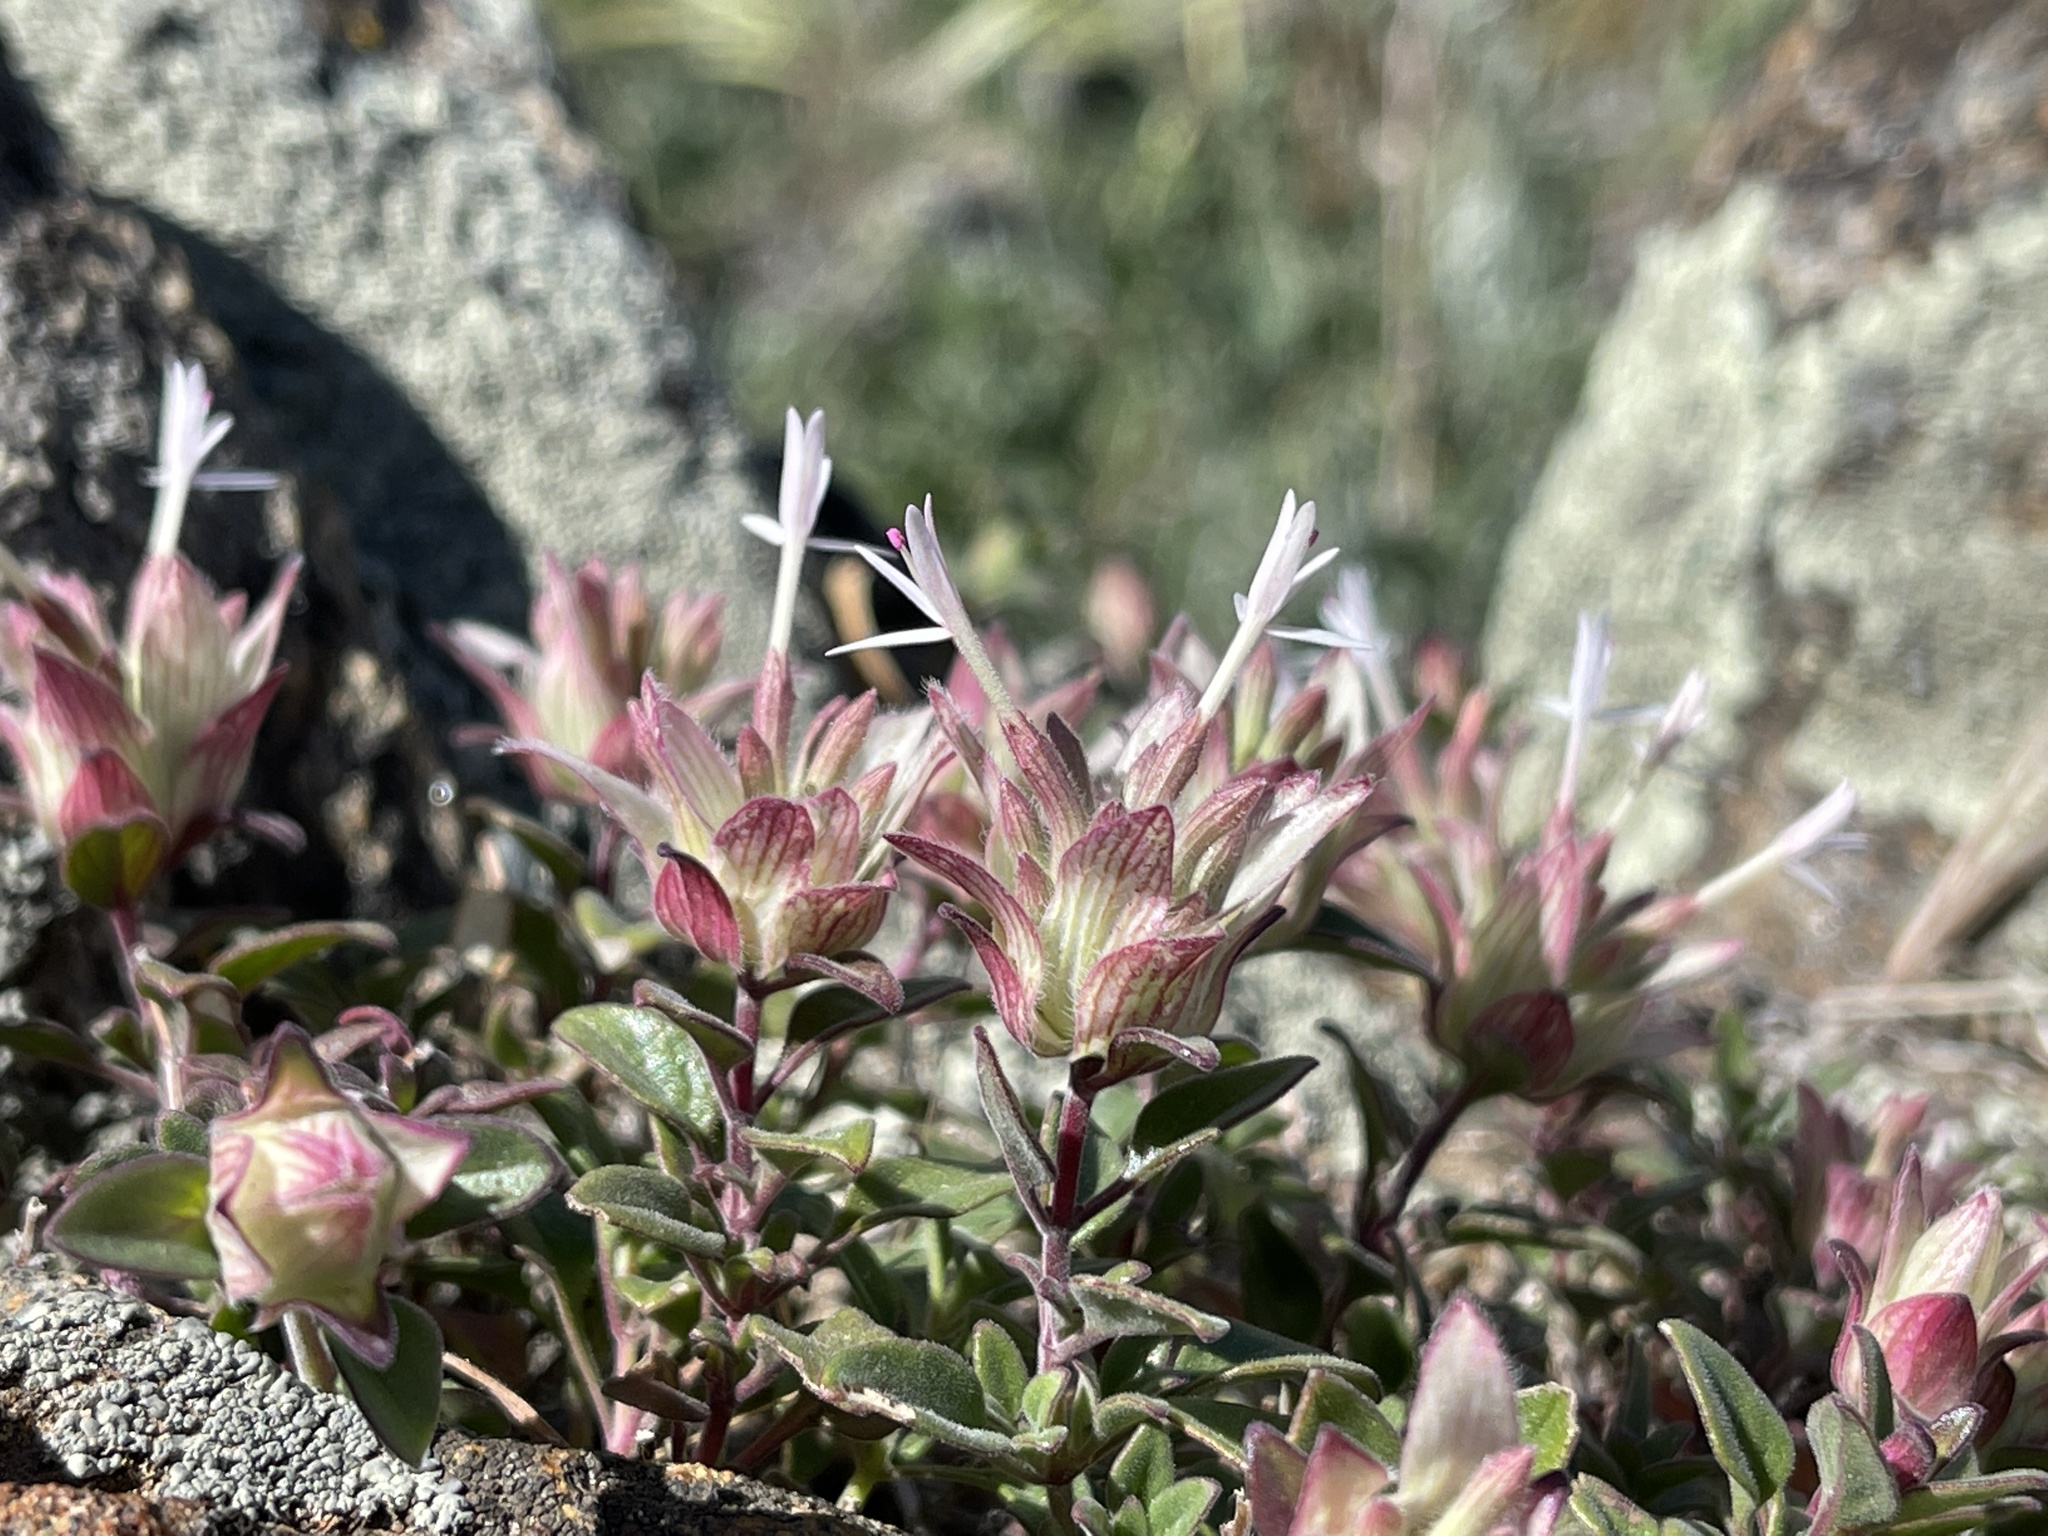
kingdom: Plantae
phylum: Tracheophyta
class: Magnoliopsida
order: Lamiales
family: Lamiaceae
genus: Monardella
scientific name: Monardella nana
